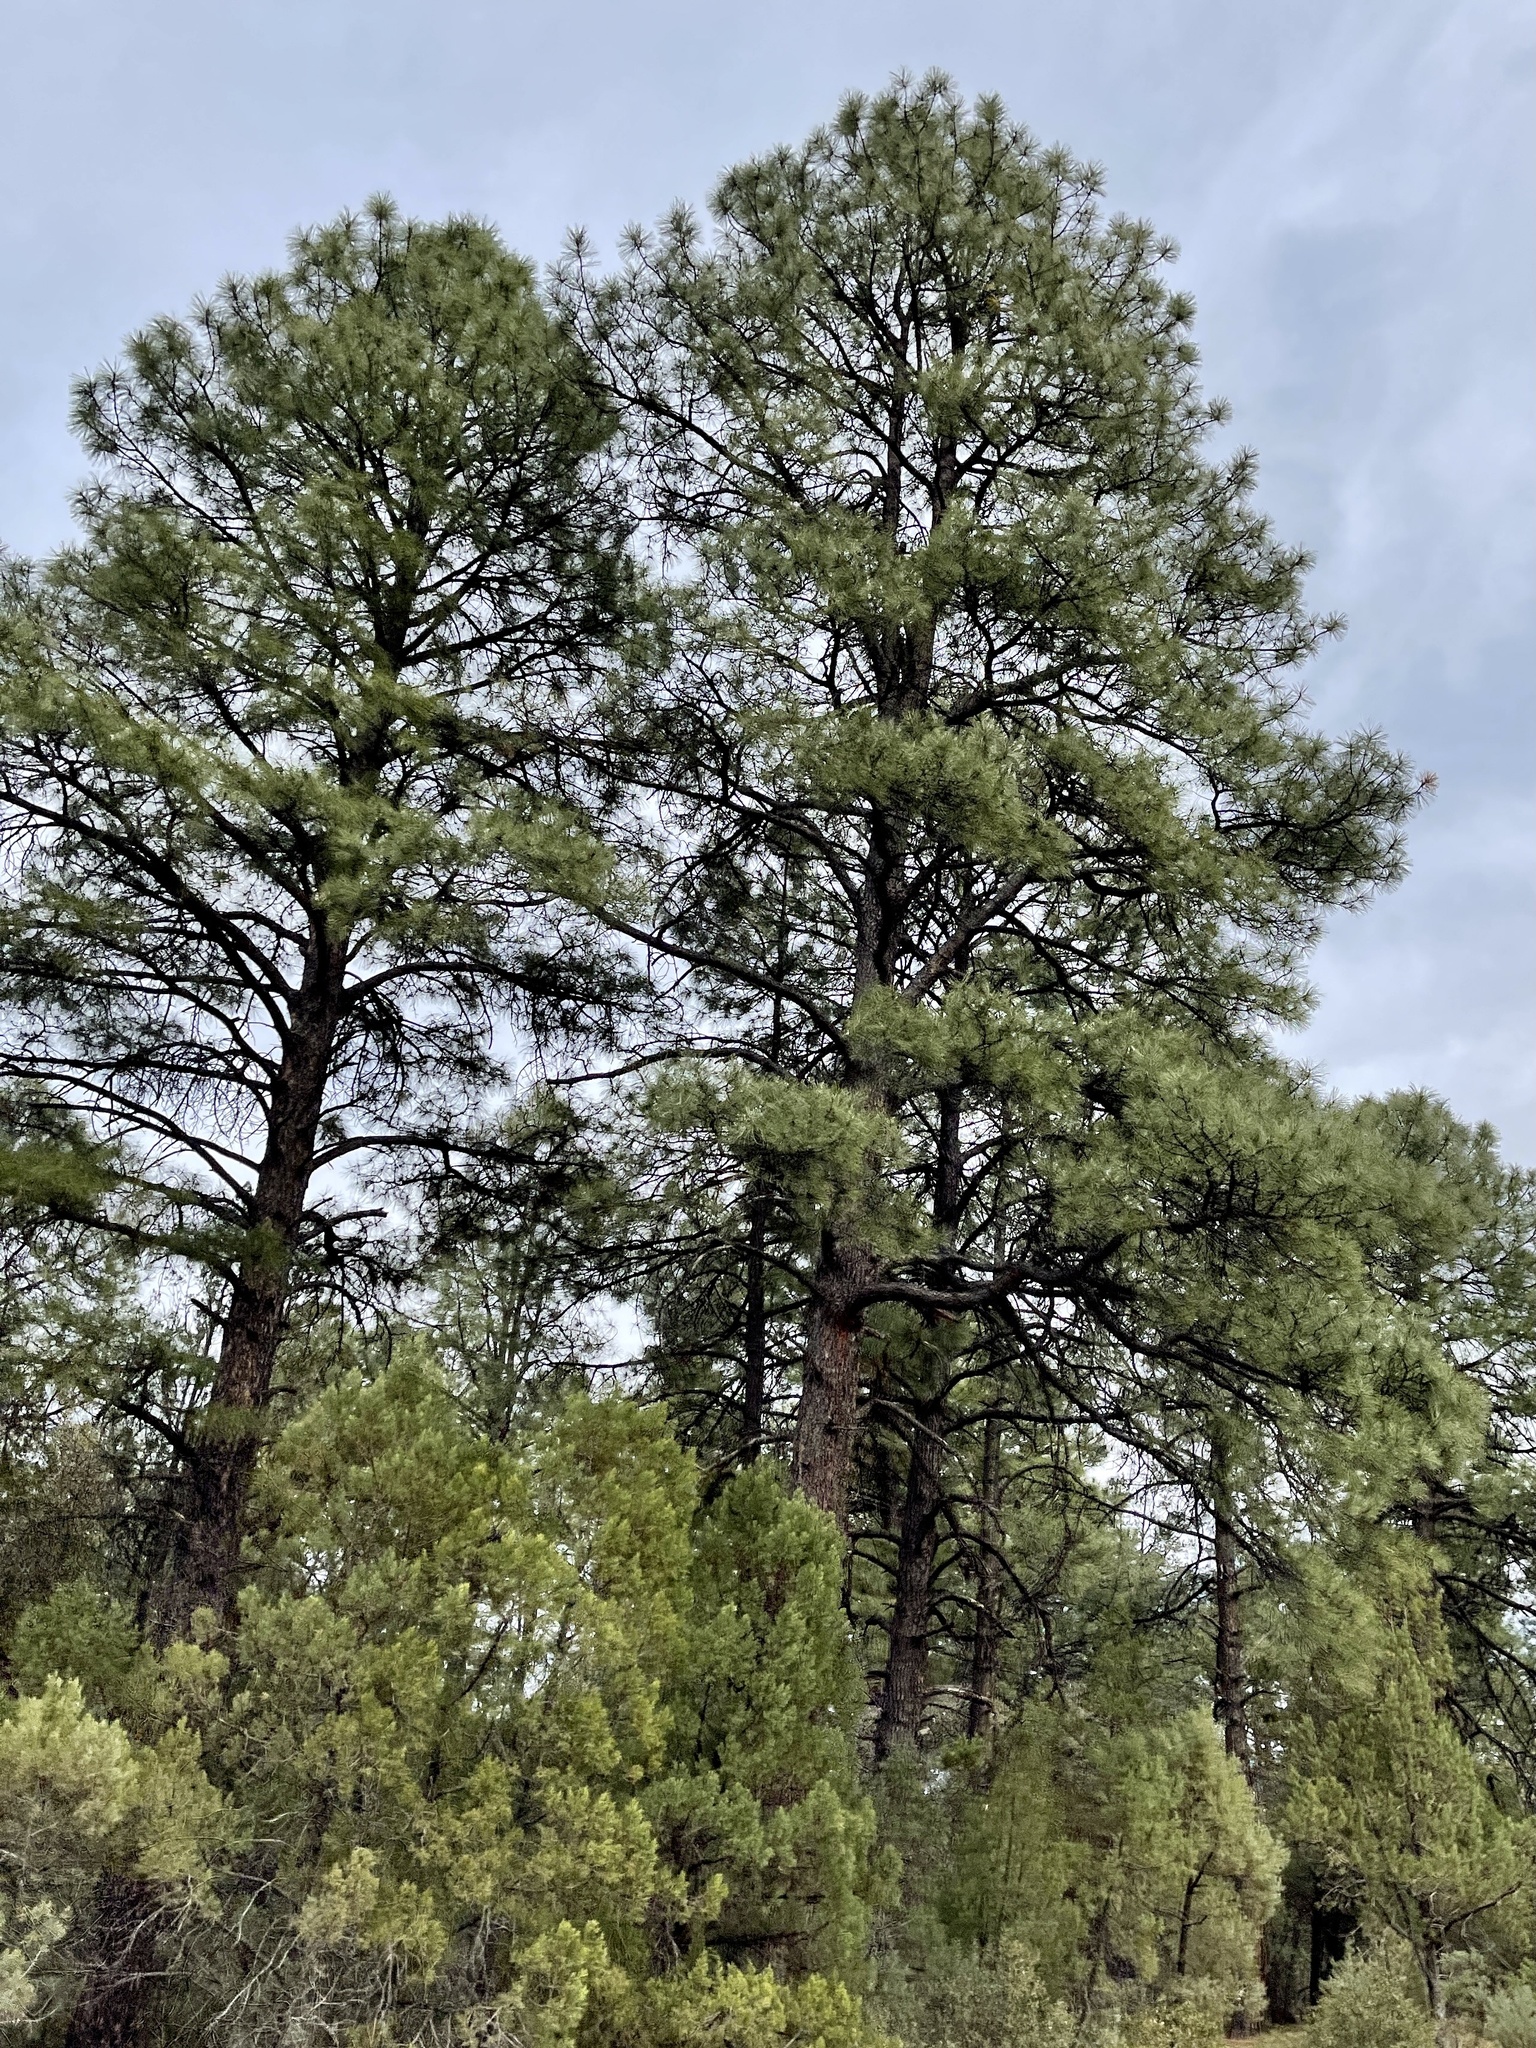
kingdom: Plantae
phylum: Tracheophyta
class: Pinopsida
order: Pinales
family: Pinaceae
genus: Pinus
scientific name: Pinus ponderosa
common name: Western yellow-pine
